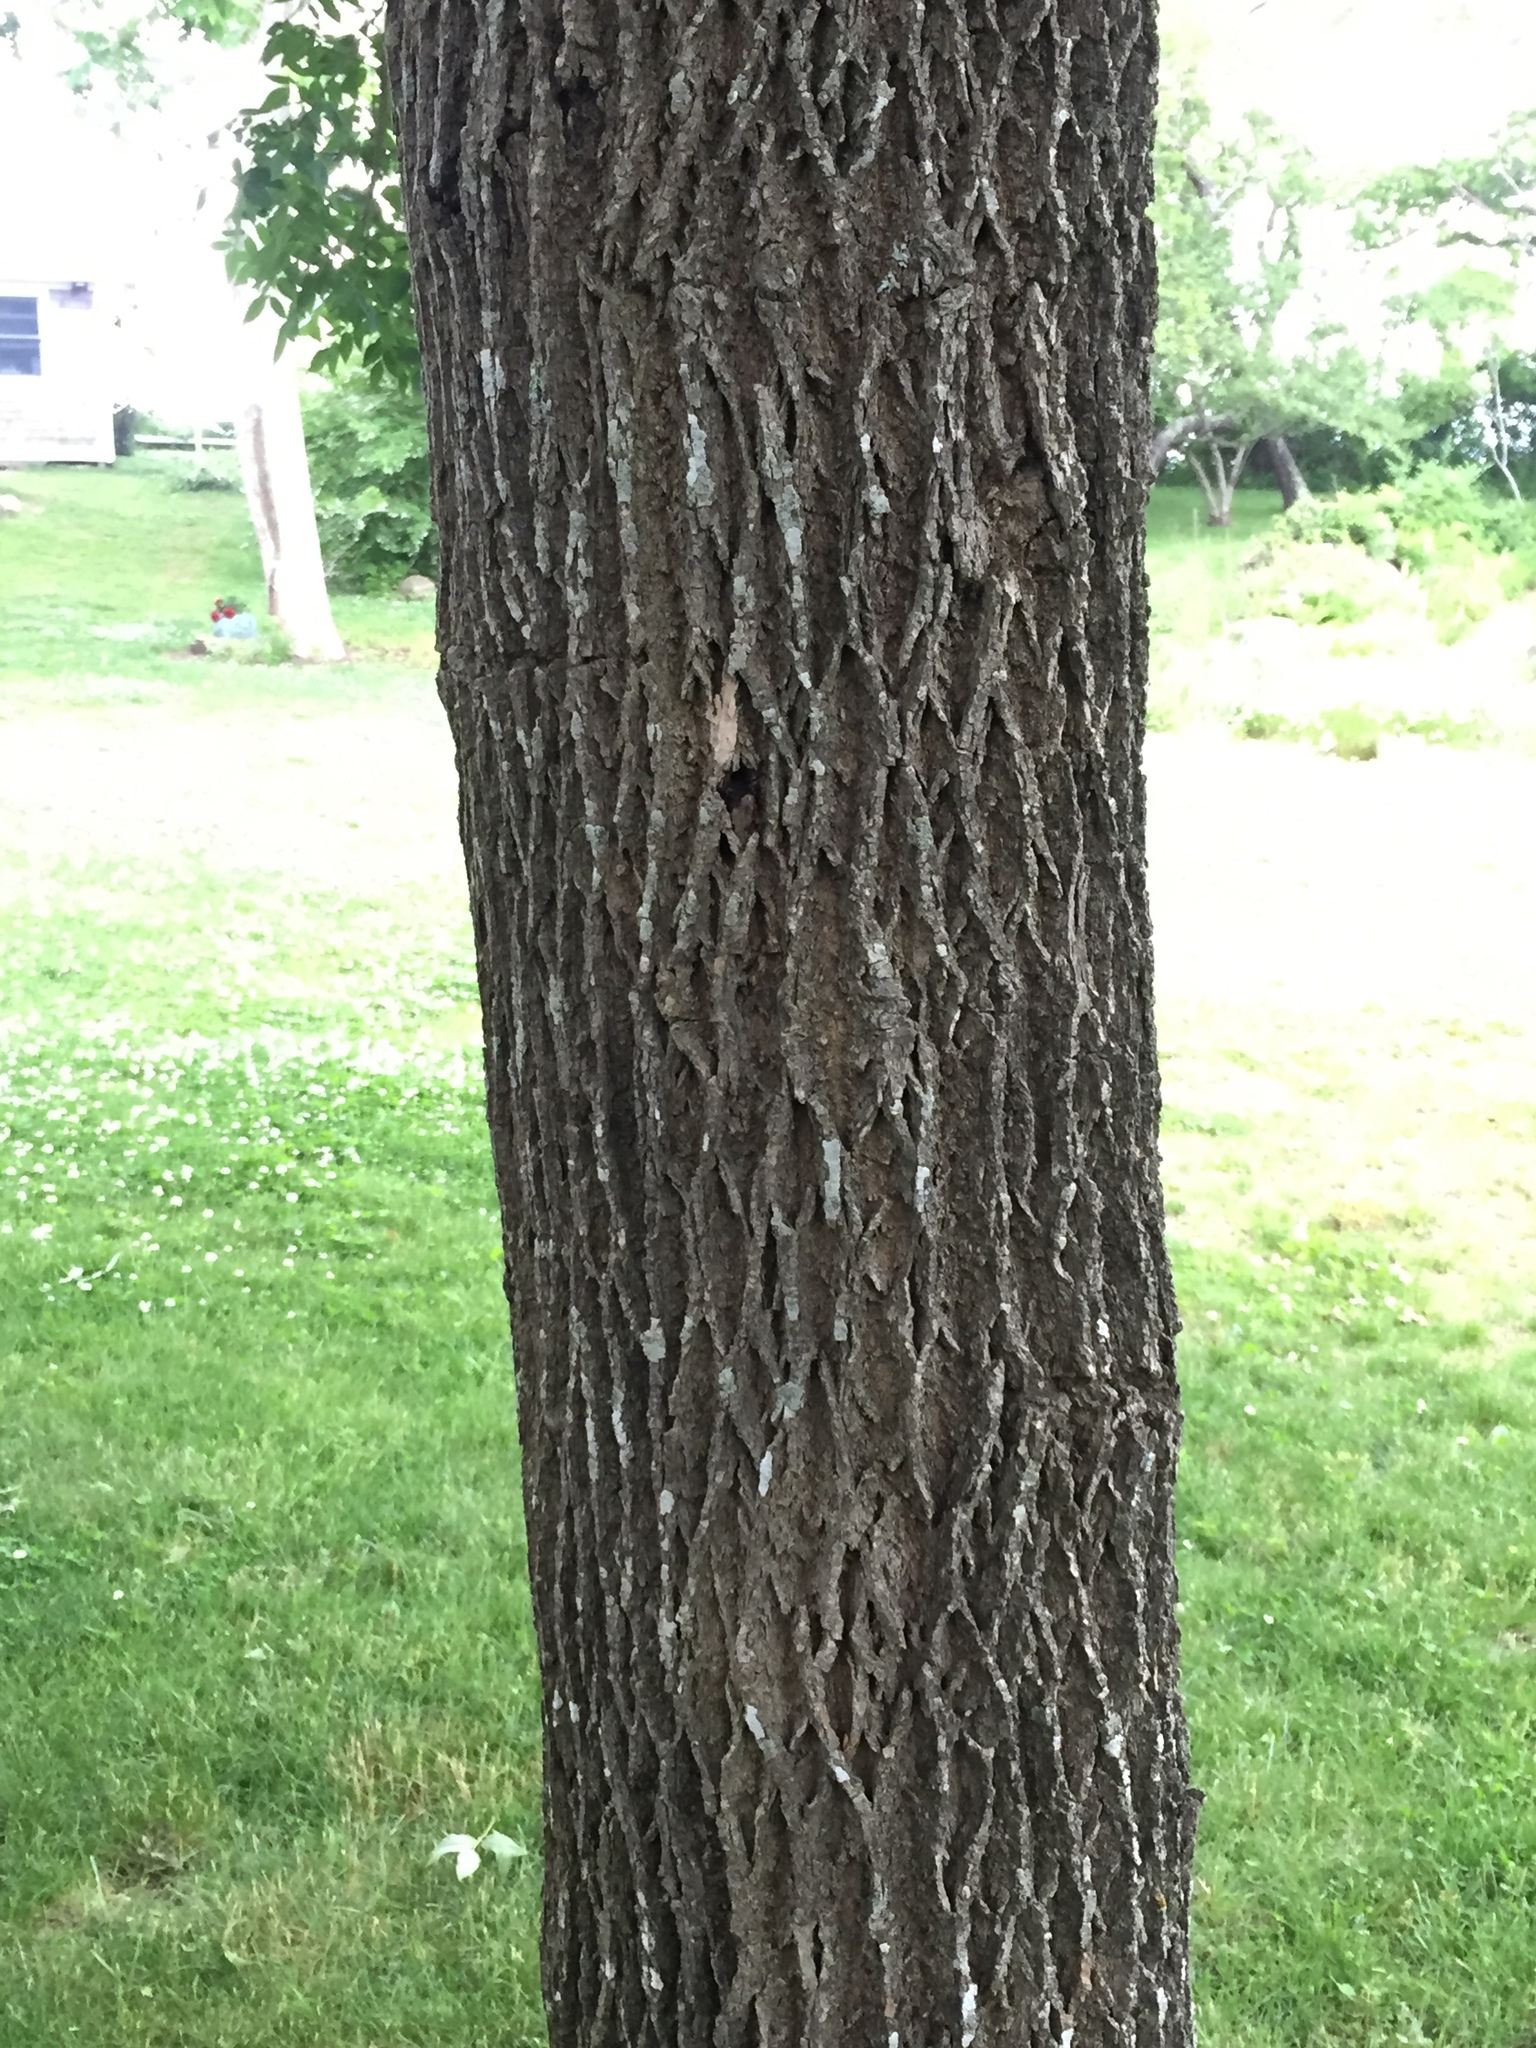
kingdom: Plantae
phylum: Tracheophyta
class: Magnoliopsida
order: Lamiales
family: Oleaceae
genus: Fraxinus
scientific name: Fraxinus americana
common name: White ash
